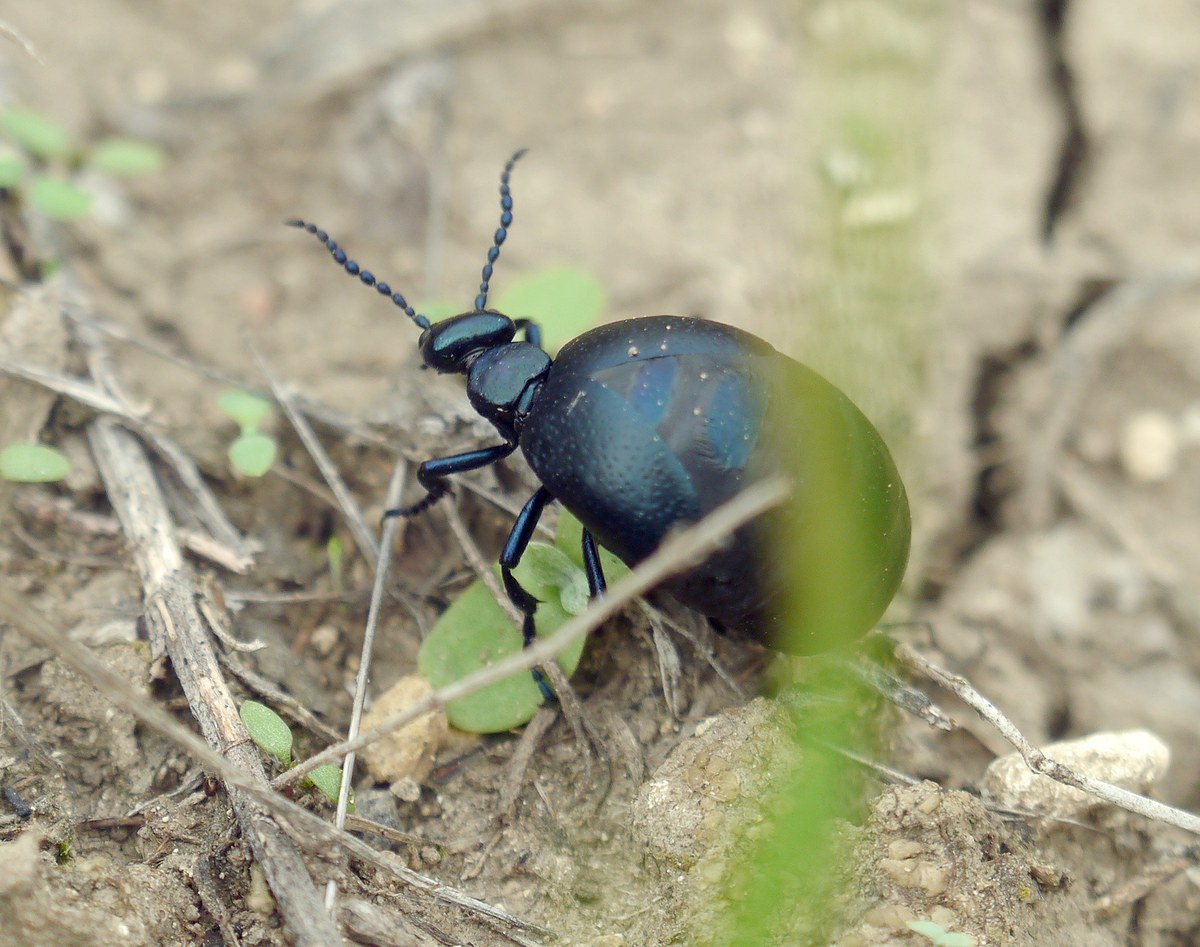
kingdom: Animalia
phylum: Arthropoda
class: Insecta
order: Coleoptera
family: Meloidae
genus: Meloe
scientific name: Meloe autumnalis
